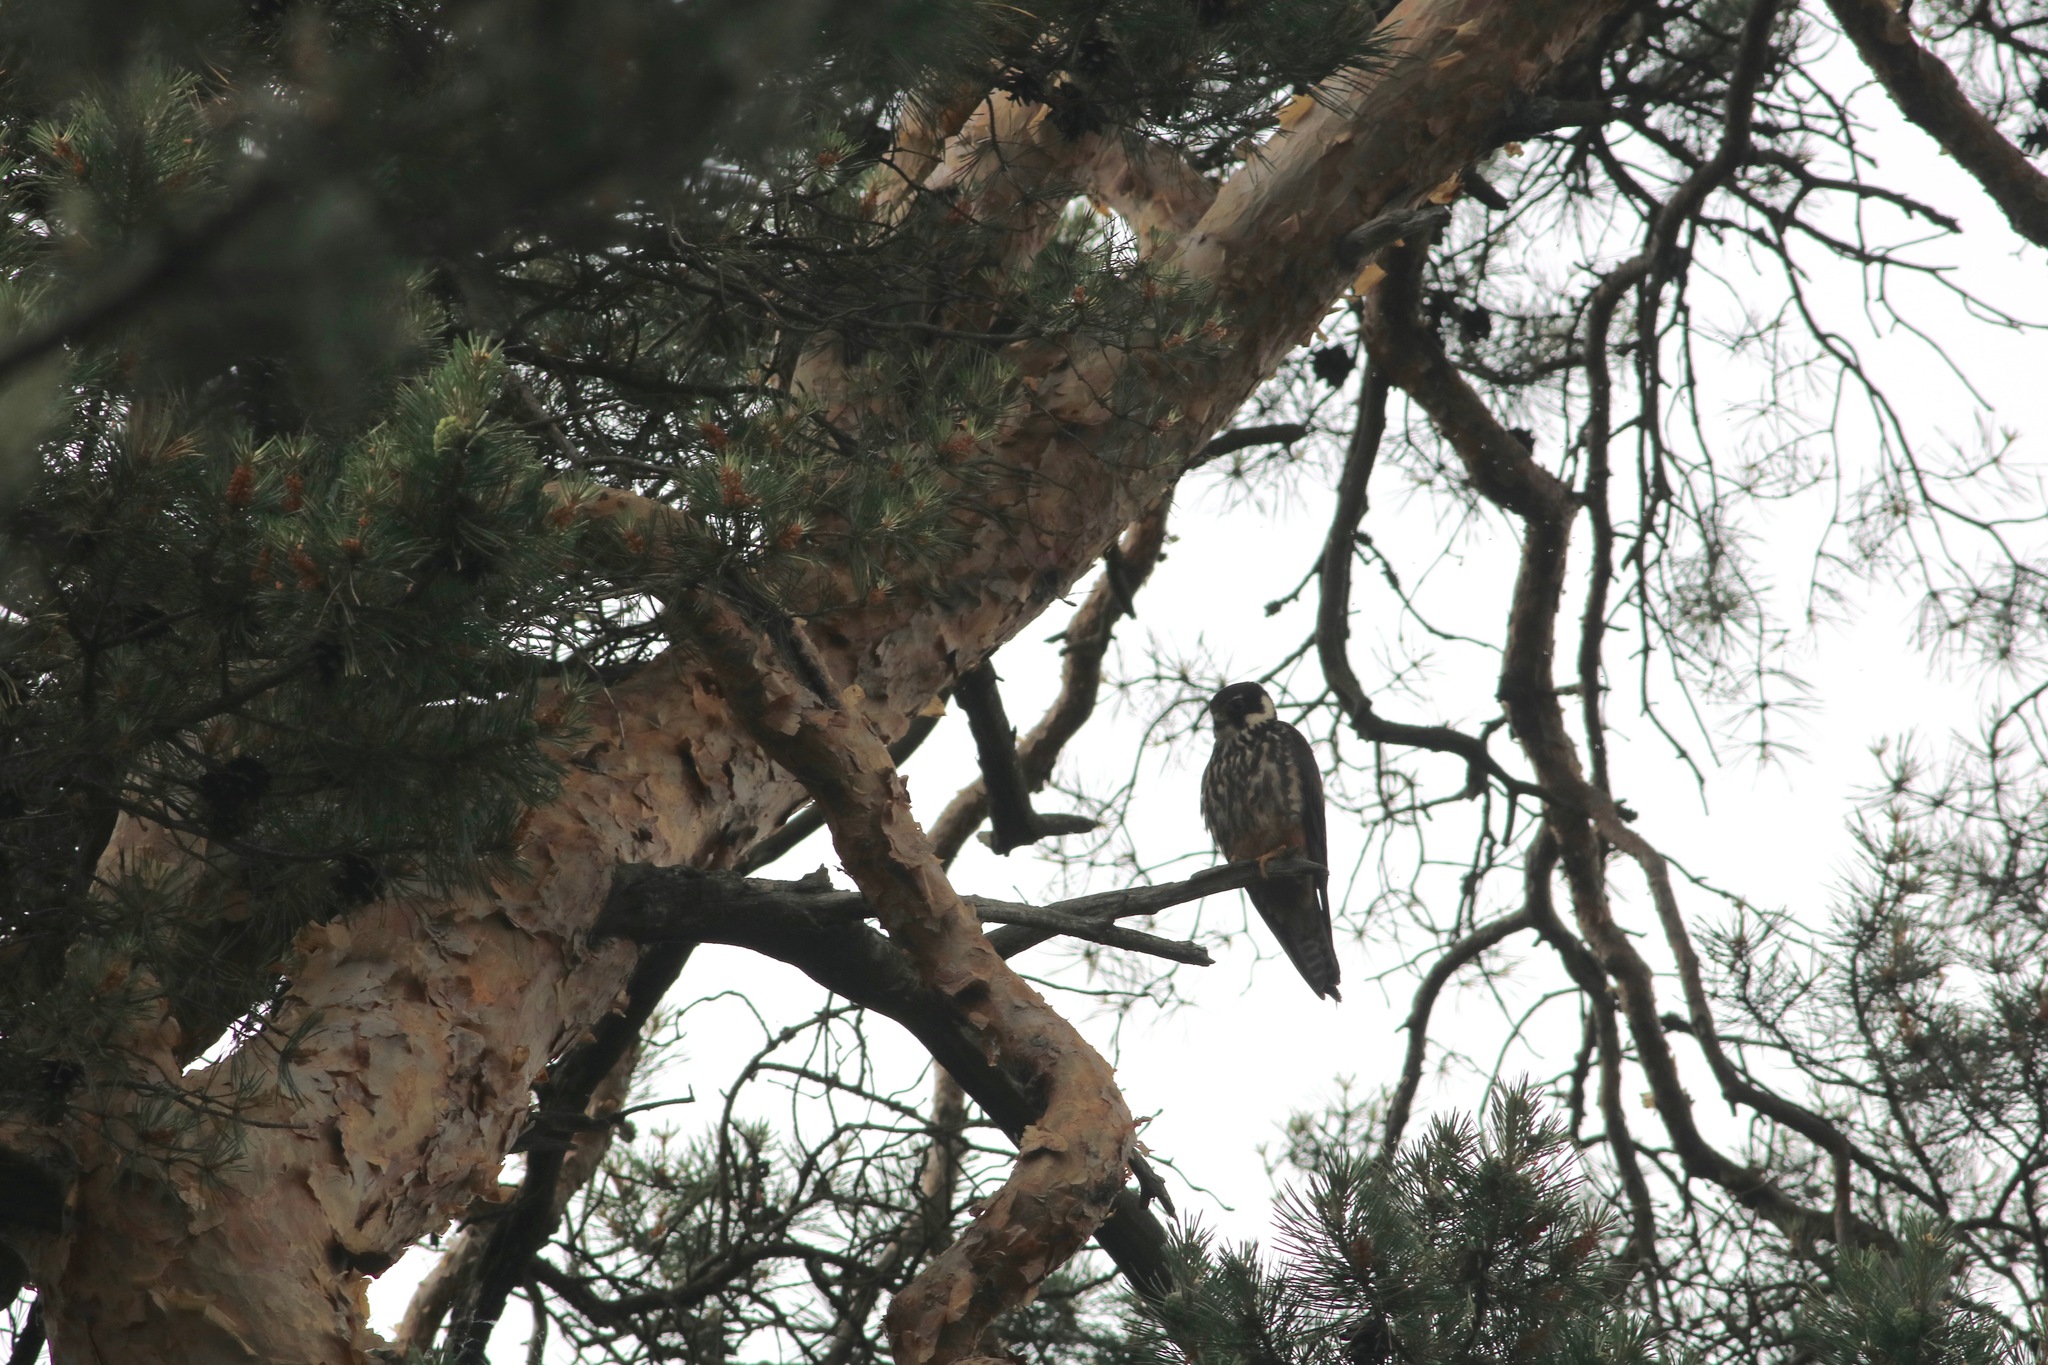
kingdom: Animalia
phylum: Chordata
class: Aves
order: Falconiformes
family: Falconidae
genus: Falco
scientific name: Falco subbuteo
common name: Eurasian hobby
